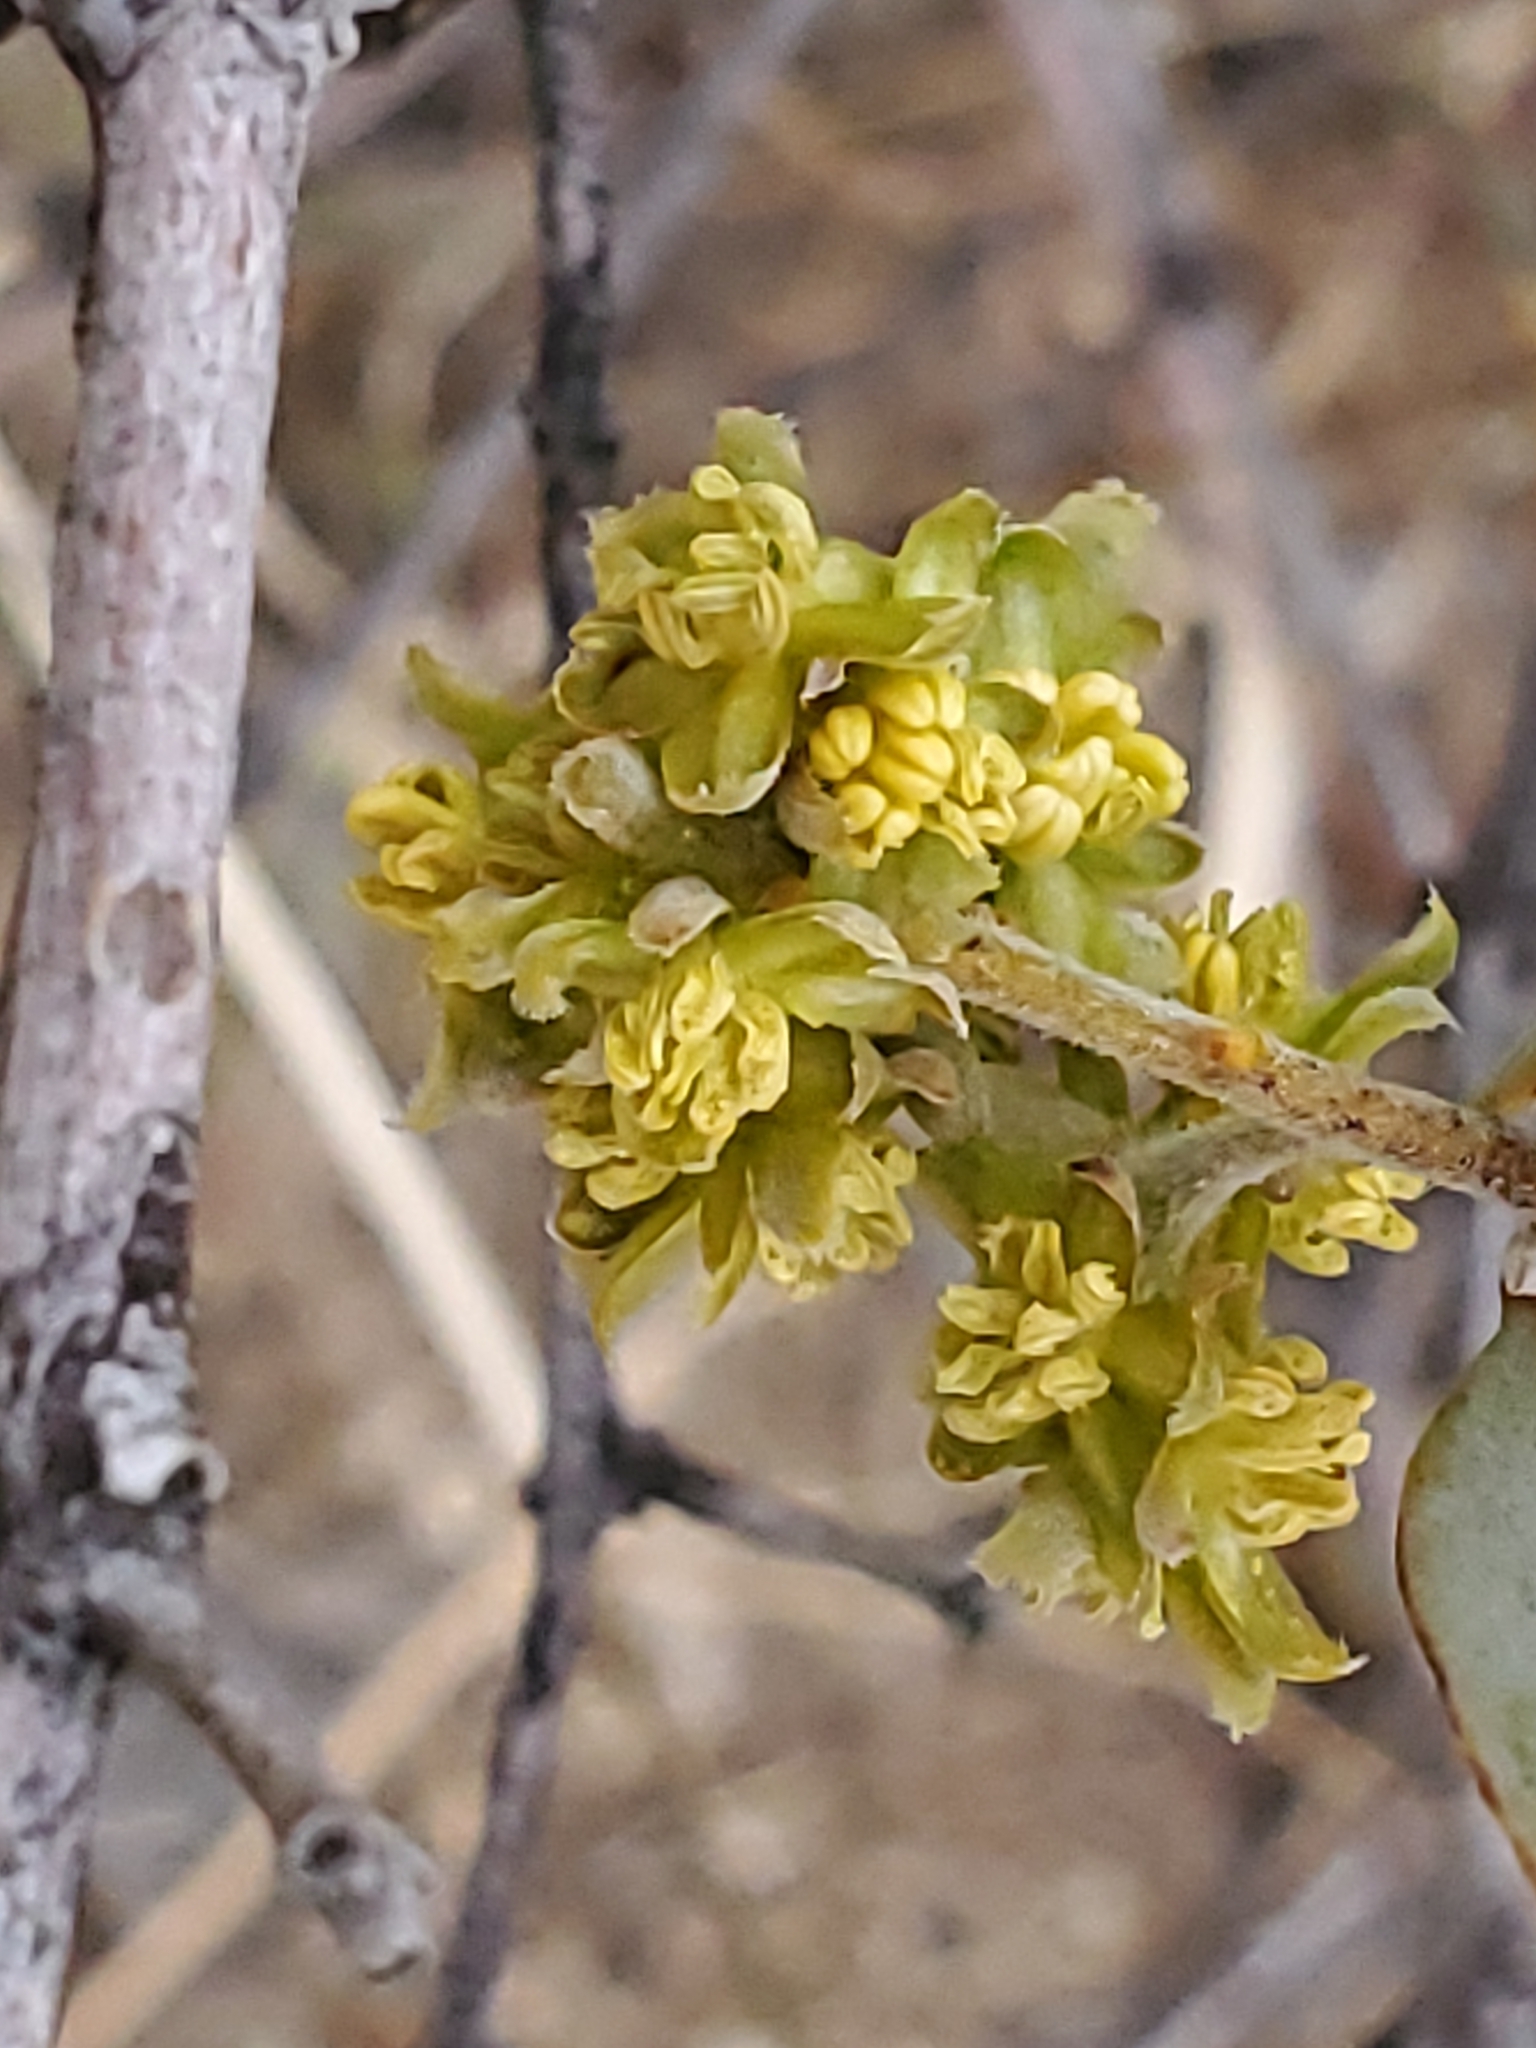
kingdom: Plantae
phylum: Tracheophyta
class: Magnoliopsida
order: Caryophyllales
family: Simmondsiaceae
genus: Simmondsia
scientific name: Simmondsia chinensis
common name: Jojoba
